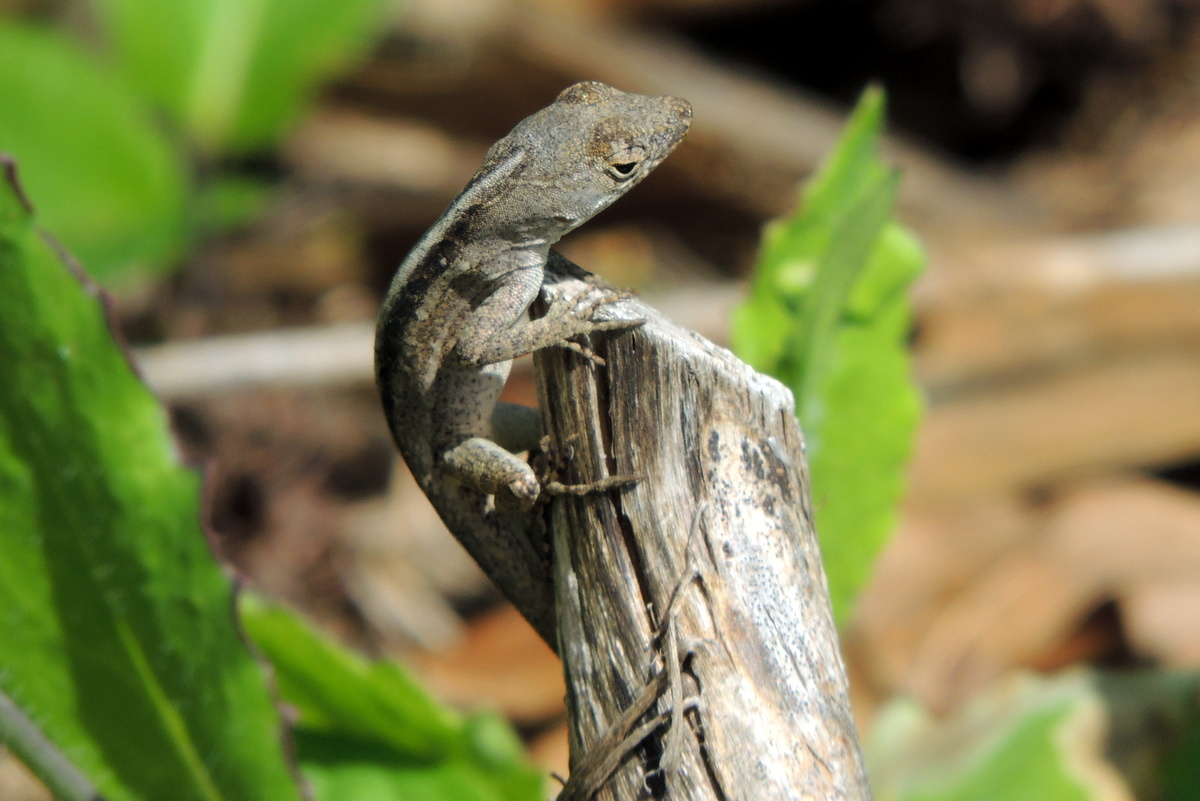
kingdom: Animalia
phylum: Chordata
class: Squamata
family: Dactyloidae
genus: Anolis
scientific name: Anolis sagrei
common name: Brown anole
